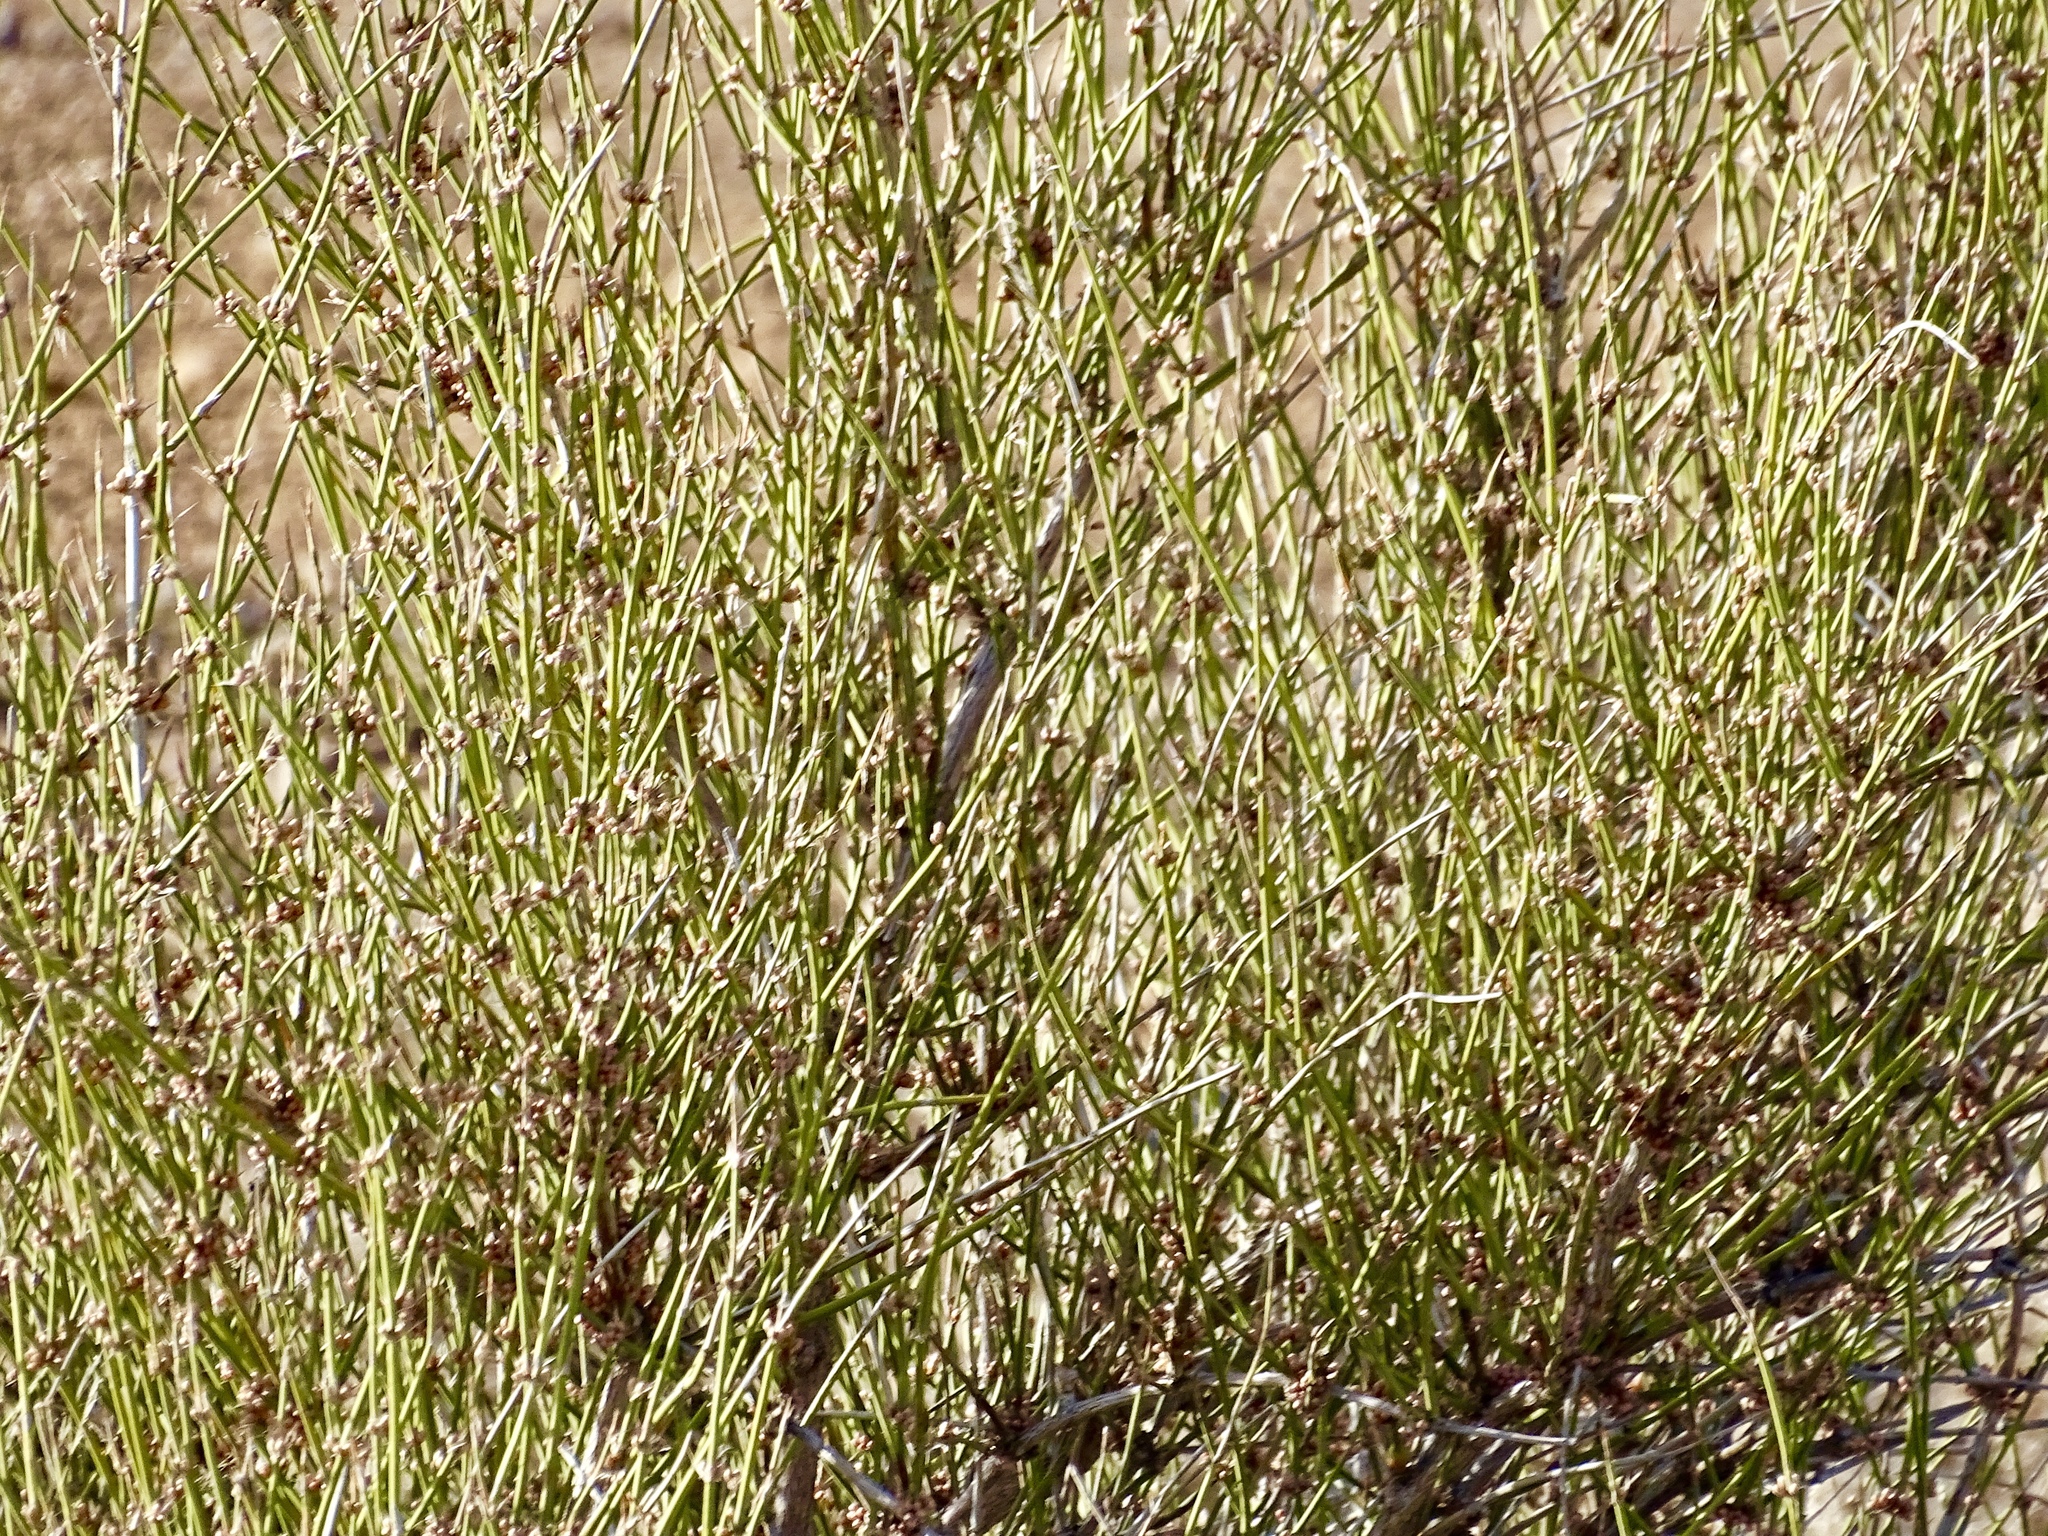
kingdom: Plantae
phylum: Tracheophyta
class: Gnetopsida
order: Ephedrales
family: Ephedraceae
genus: Ephedra
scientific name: Ephedra trifurca
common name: Mexican-tea
